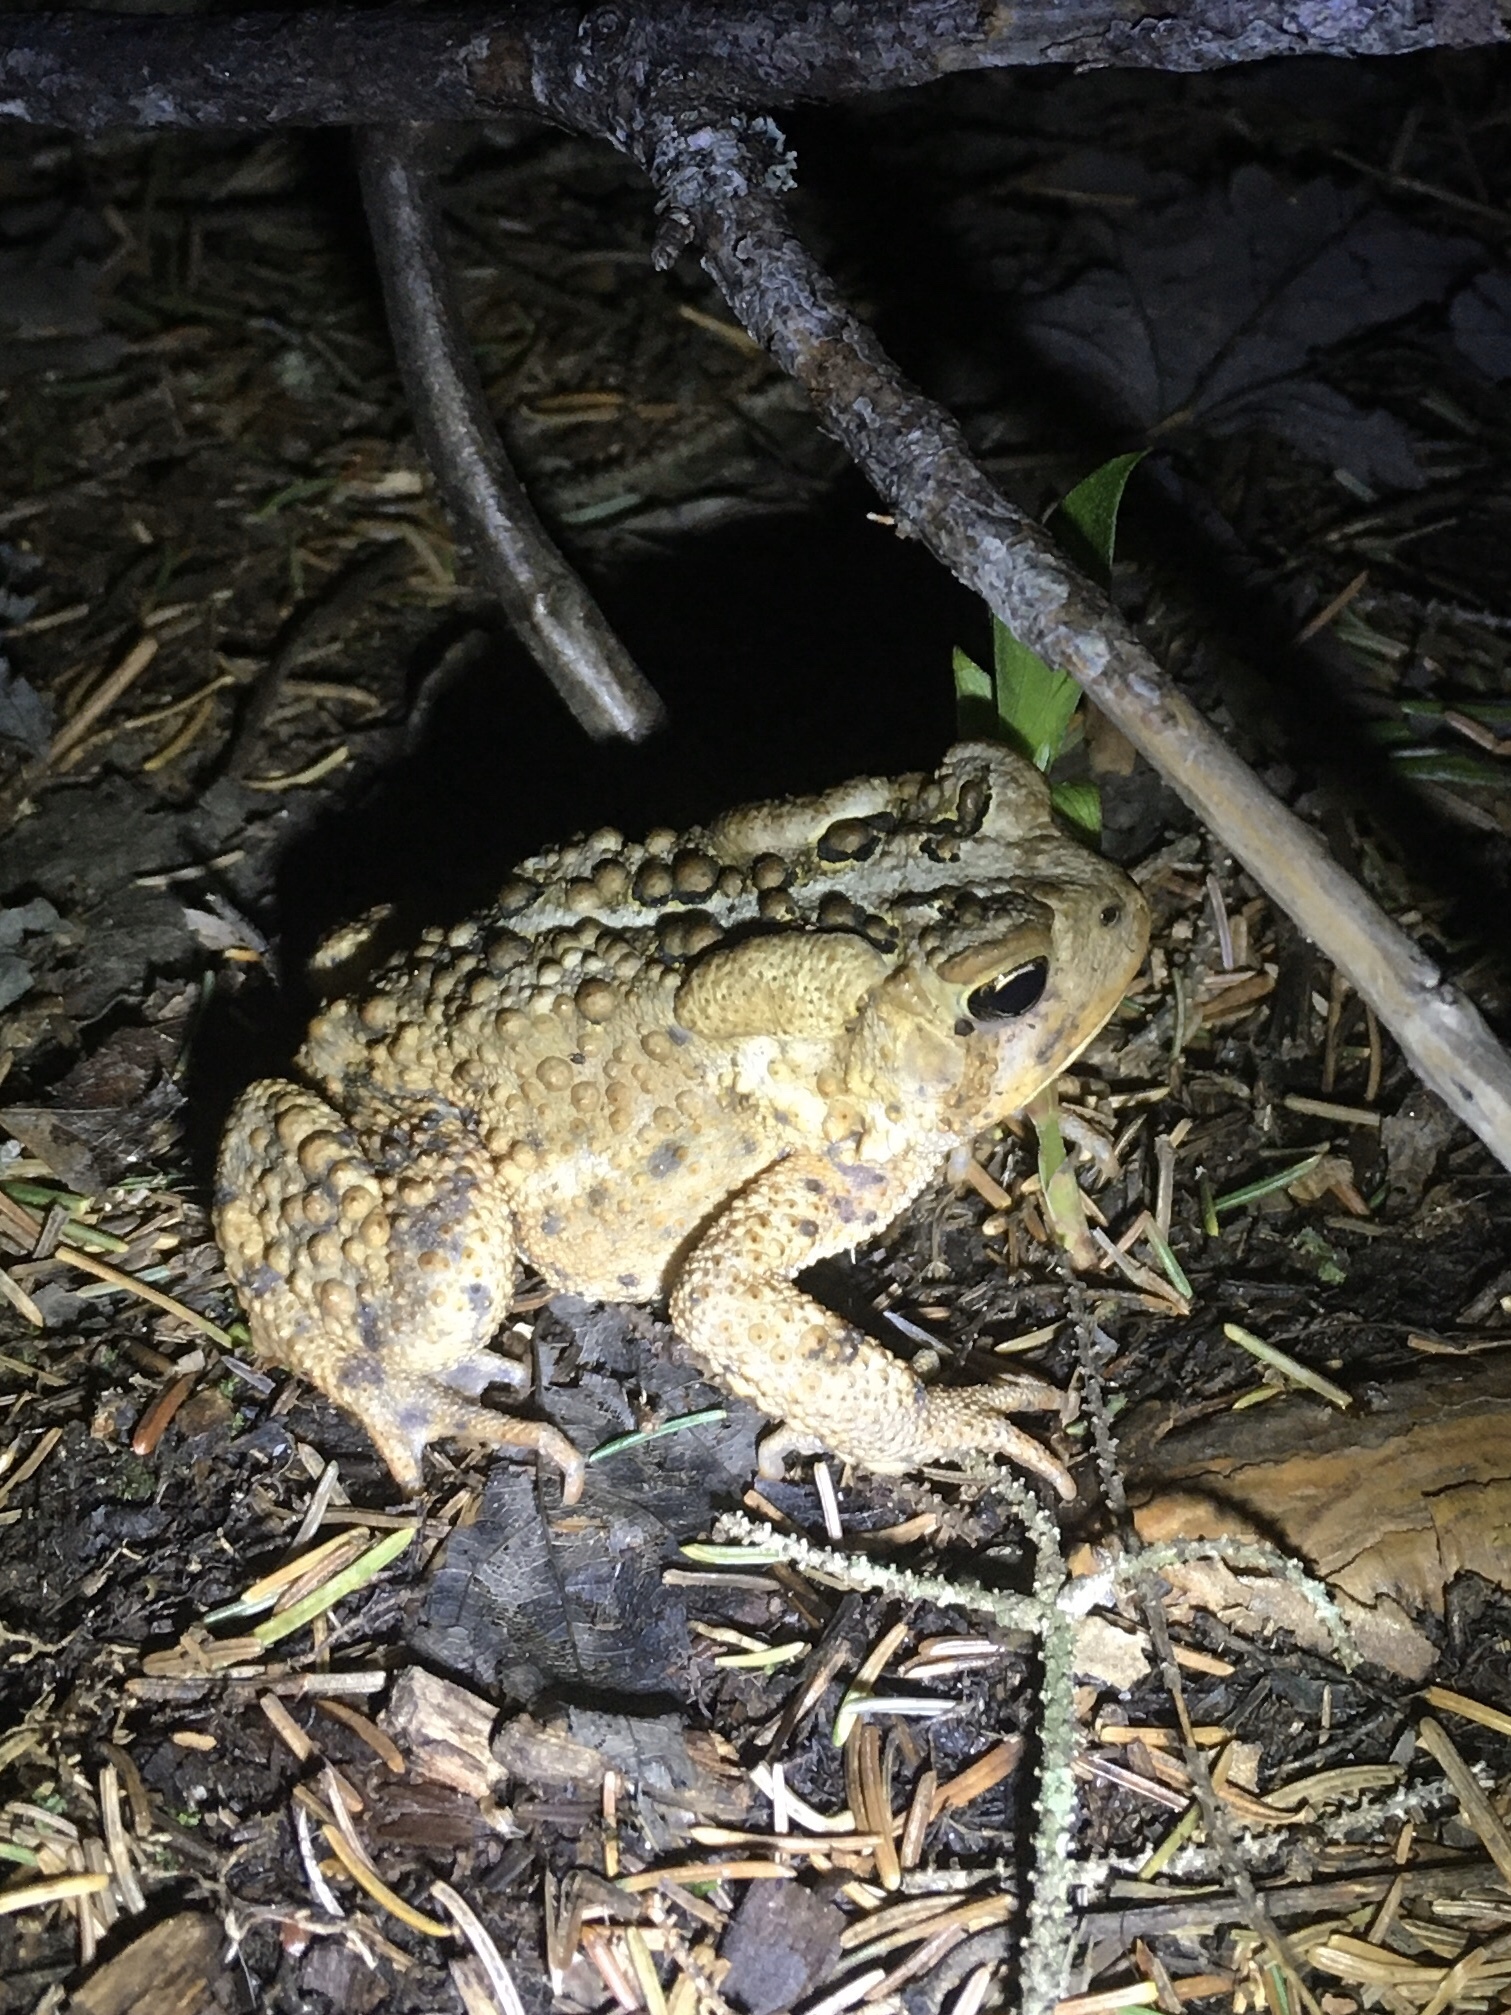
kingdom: Animalia
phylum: Chordata
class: Amphibia
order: Anura
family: Bufonidae
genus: Anaxyrus
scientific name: Anaxyrus americanus
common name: American toad
